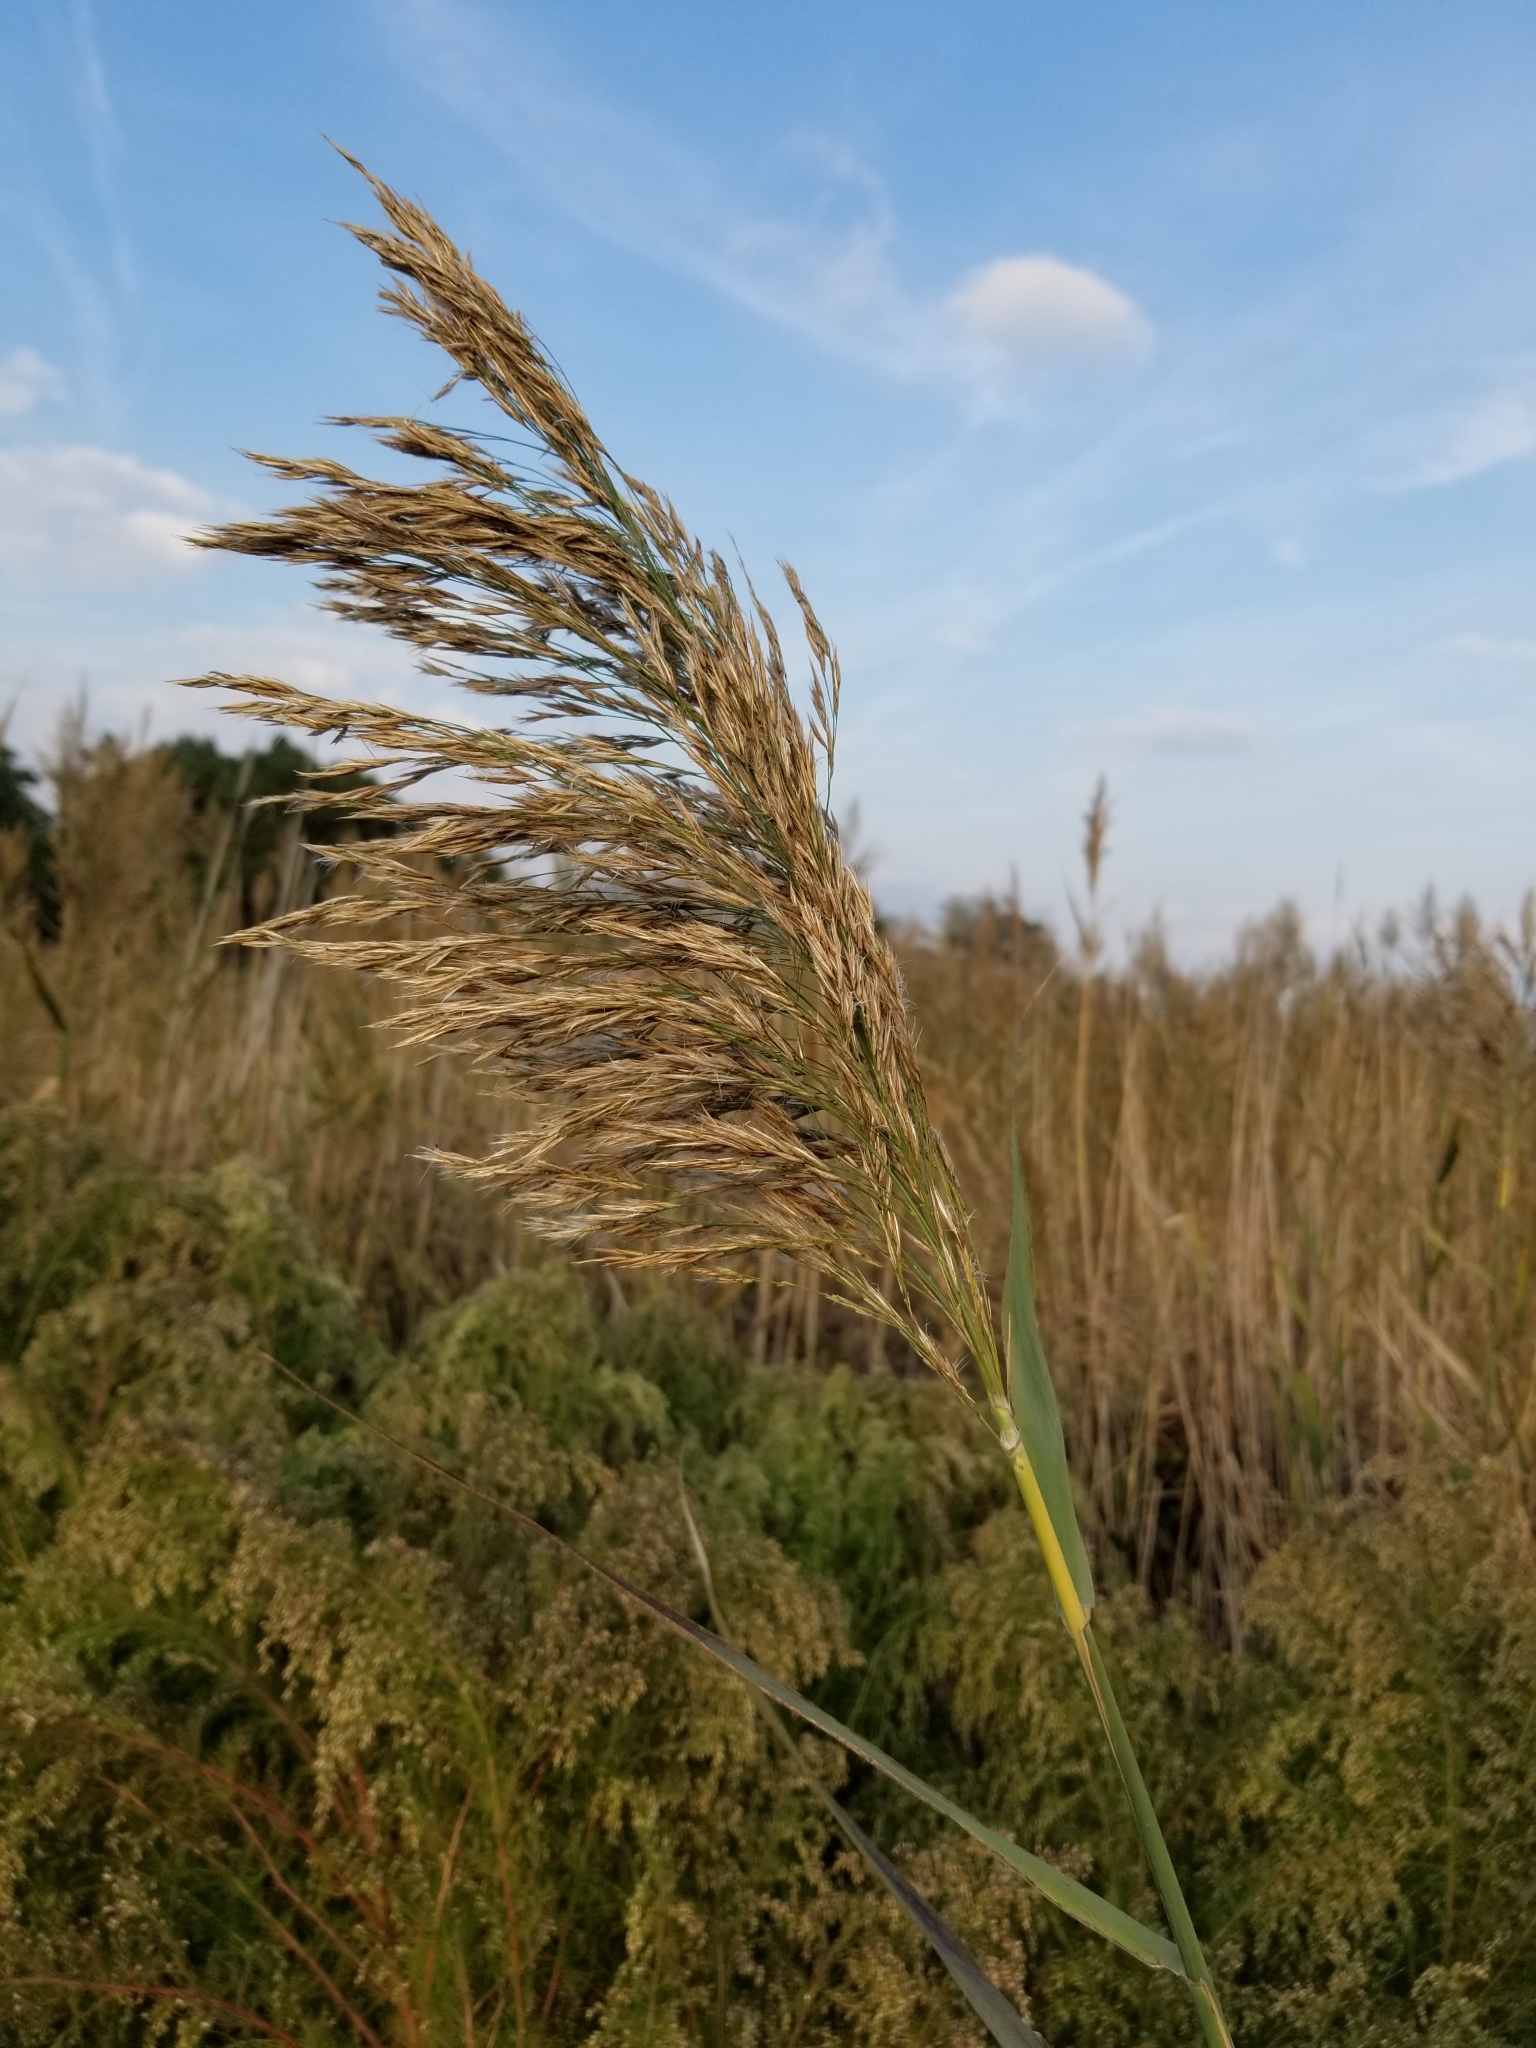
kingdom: Plantae
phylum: Tracheophyta
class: Liliopsida
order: Poales
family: Poaceae
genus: Phragmites
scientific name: Phragmites australis
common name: Common reed
